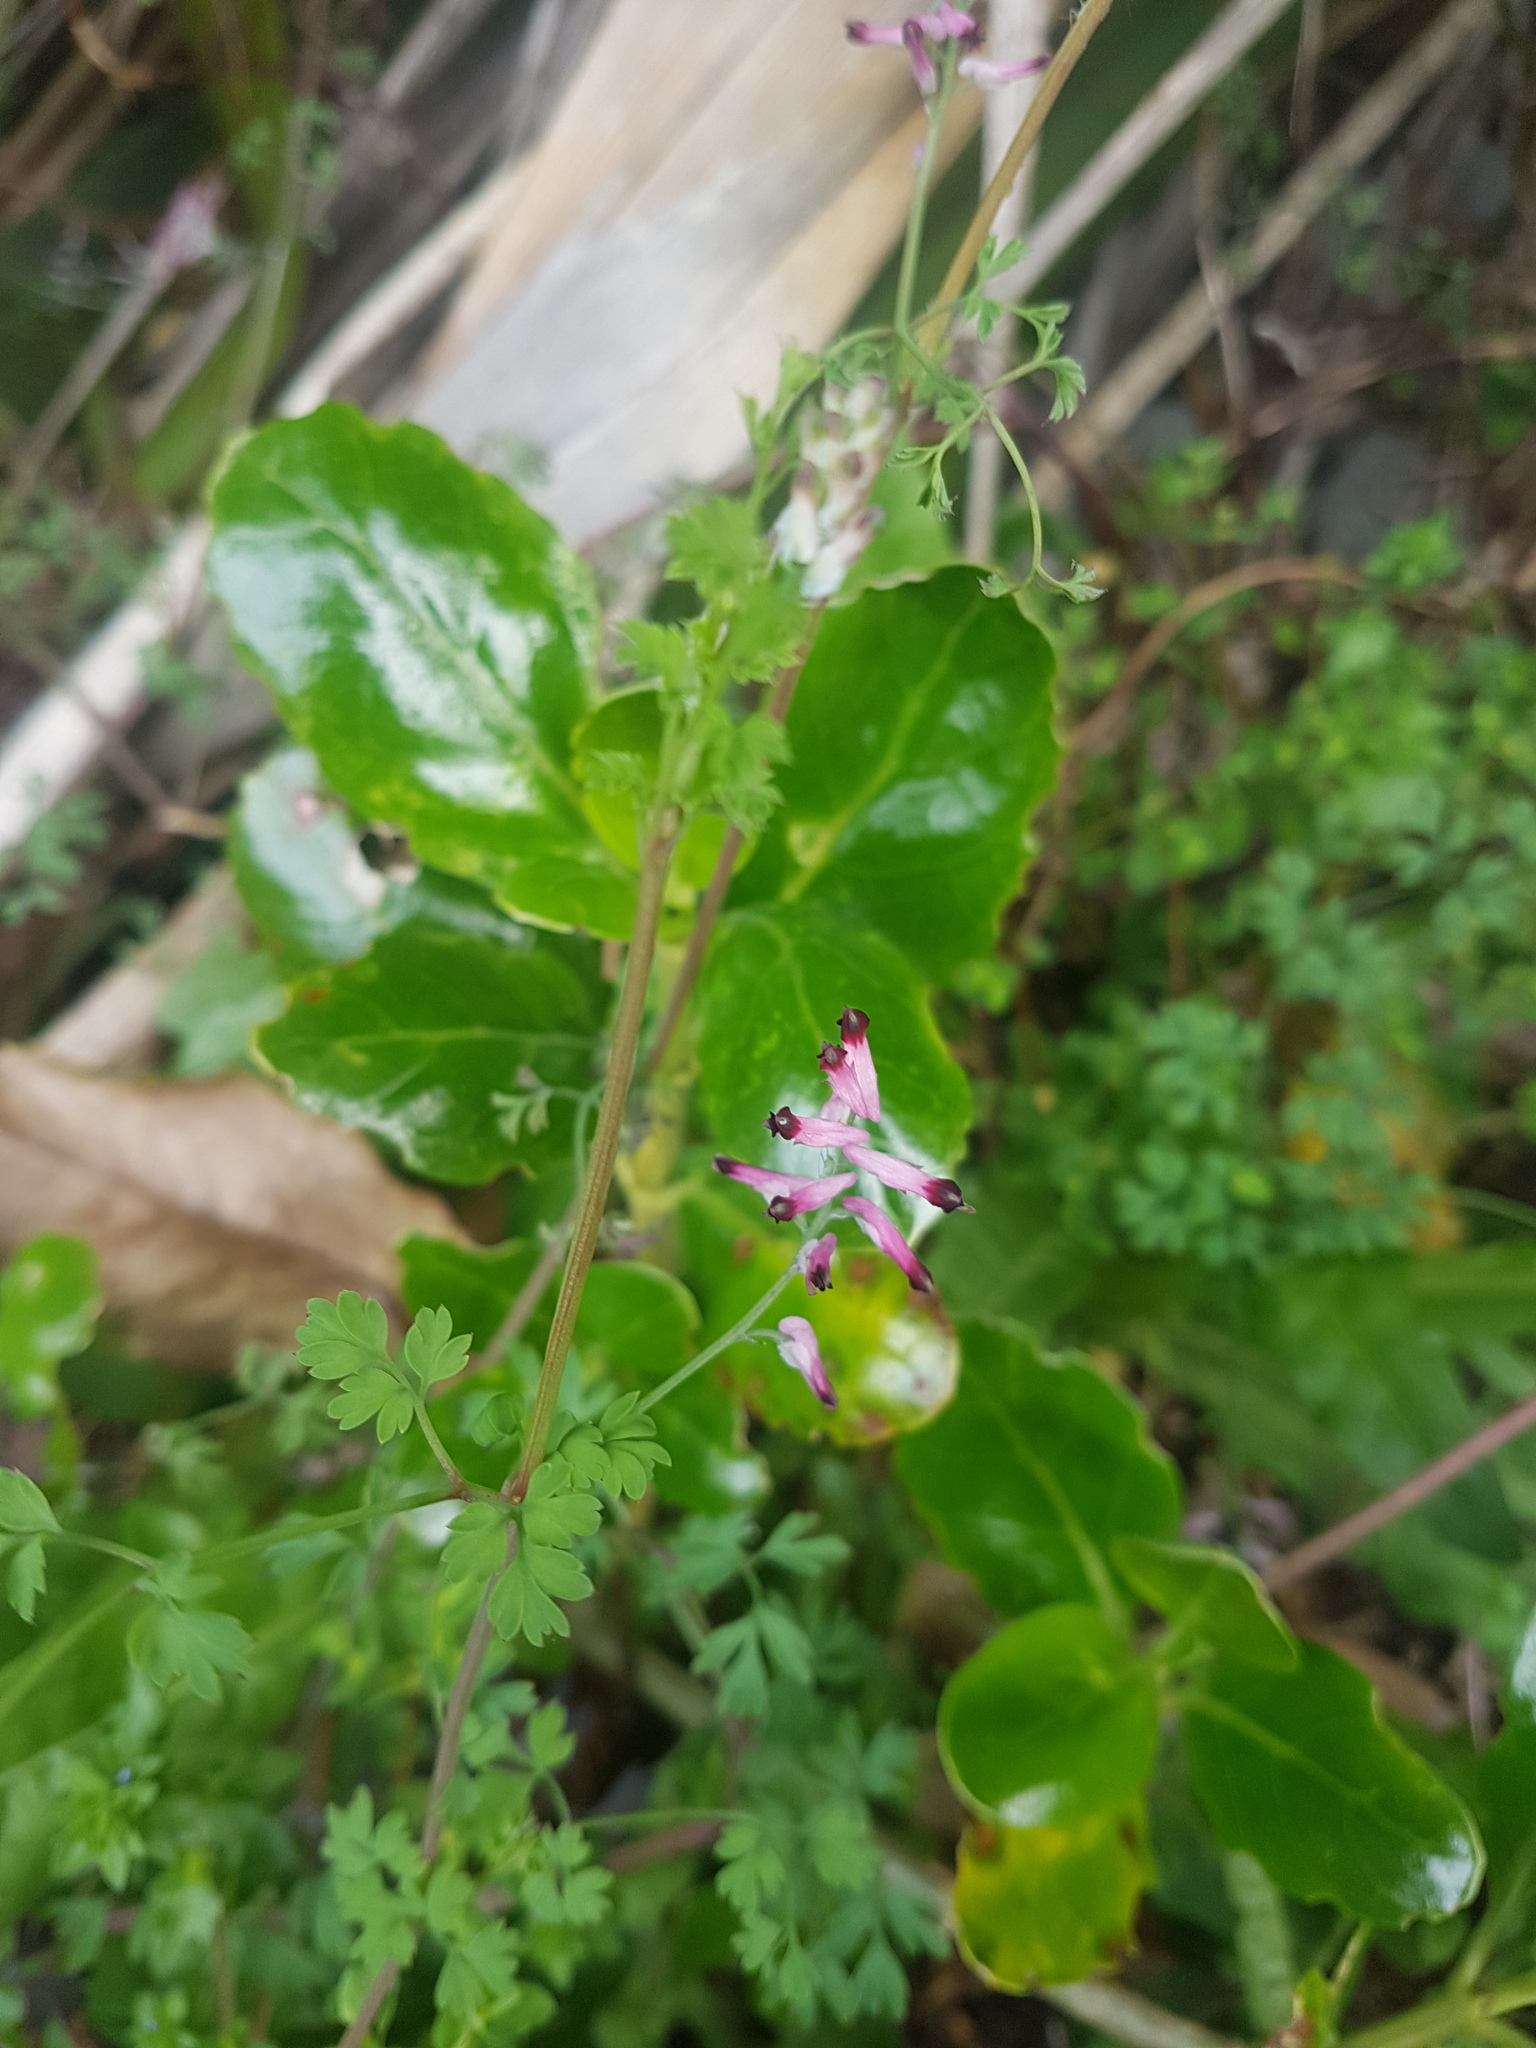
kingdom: Plantae
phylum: Tracheophyta
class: Magnoliopsida
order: Ranunculales
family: Papaveraceae
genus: Fumaria
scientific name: Fumaria muralis
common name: Common ramping-fumitory
